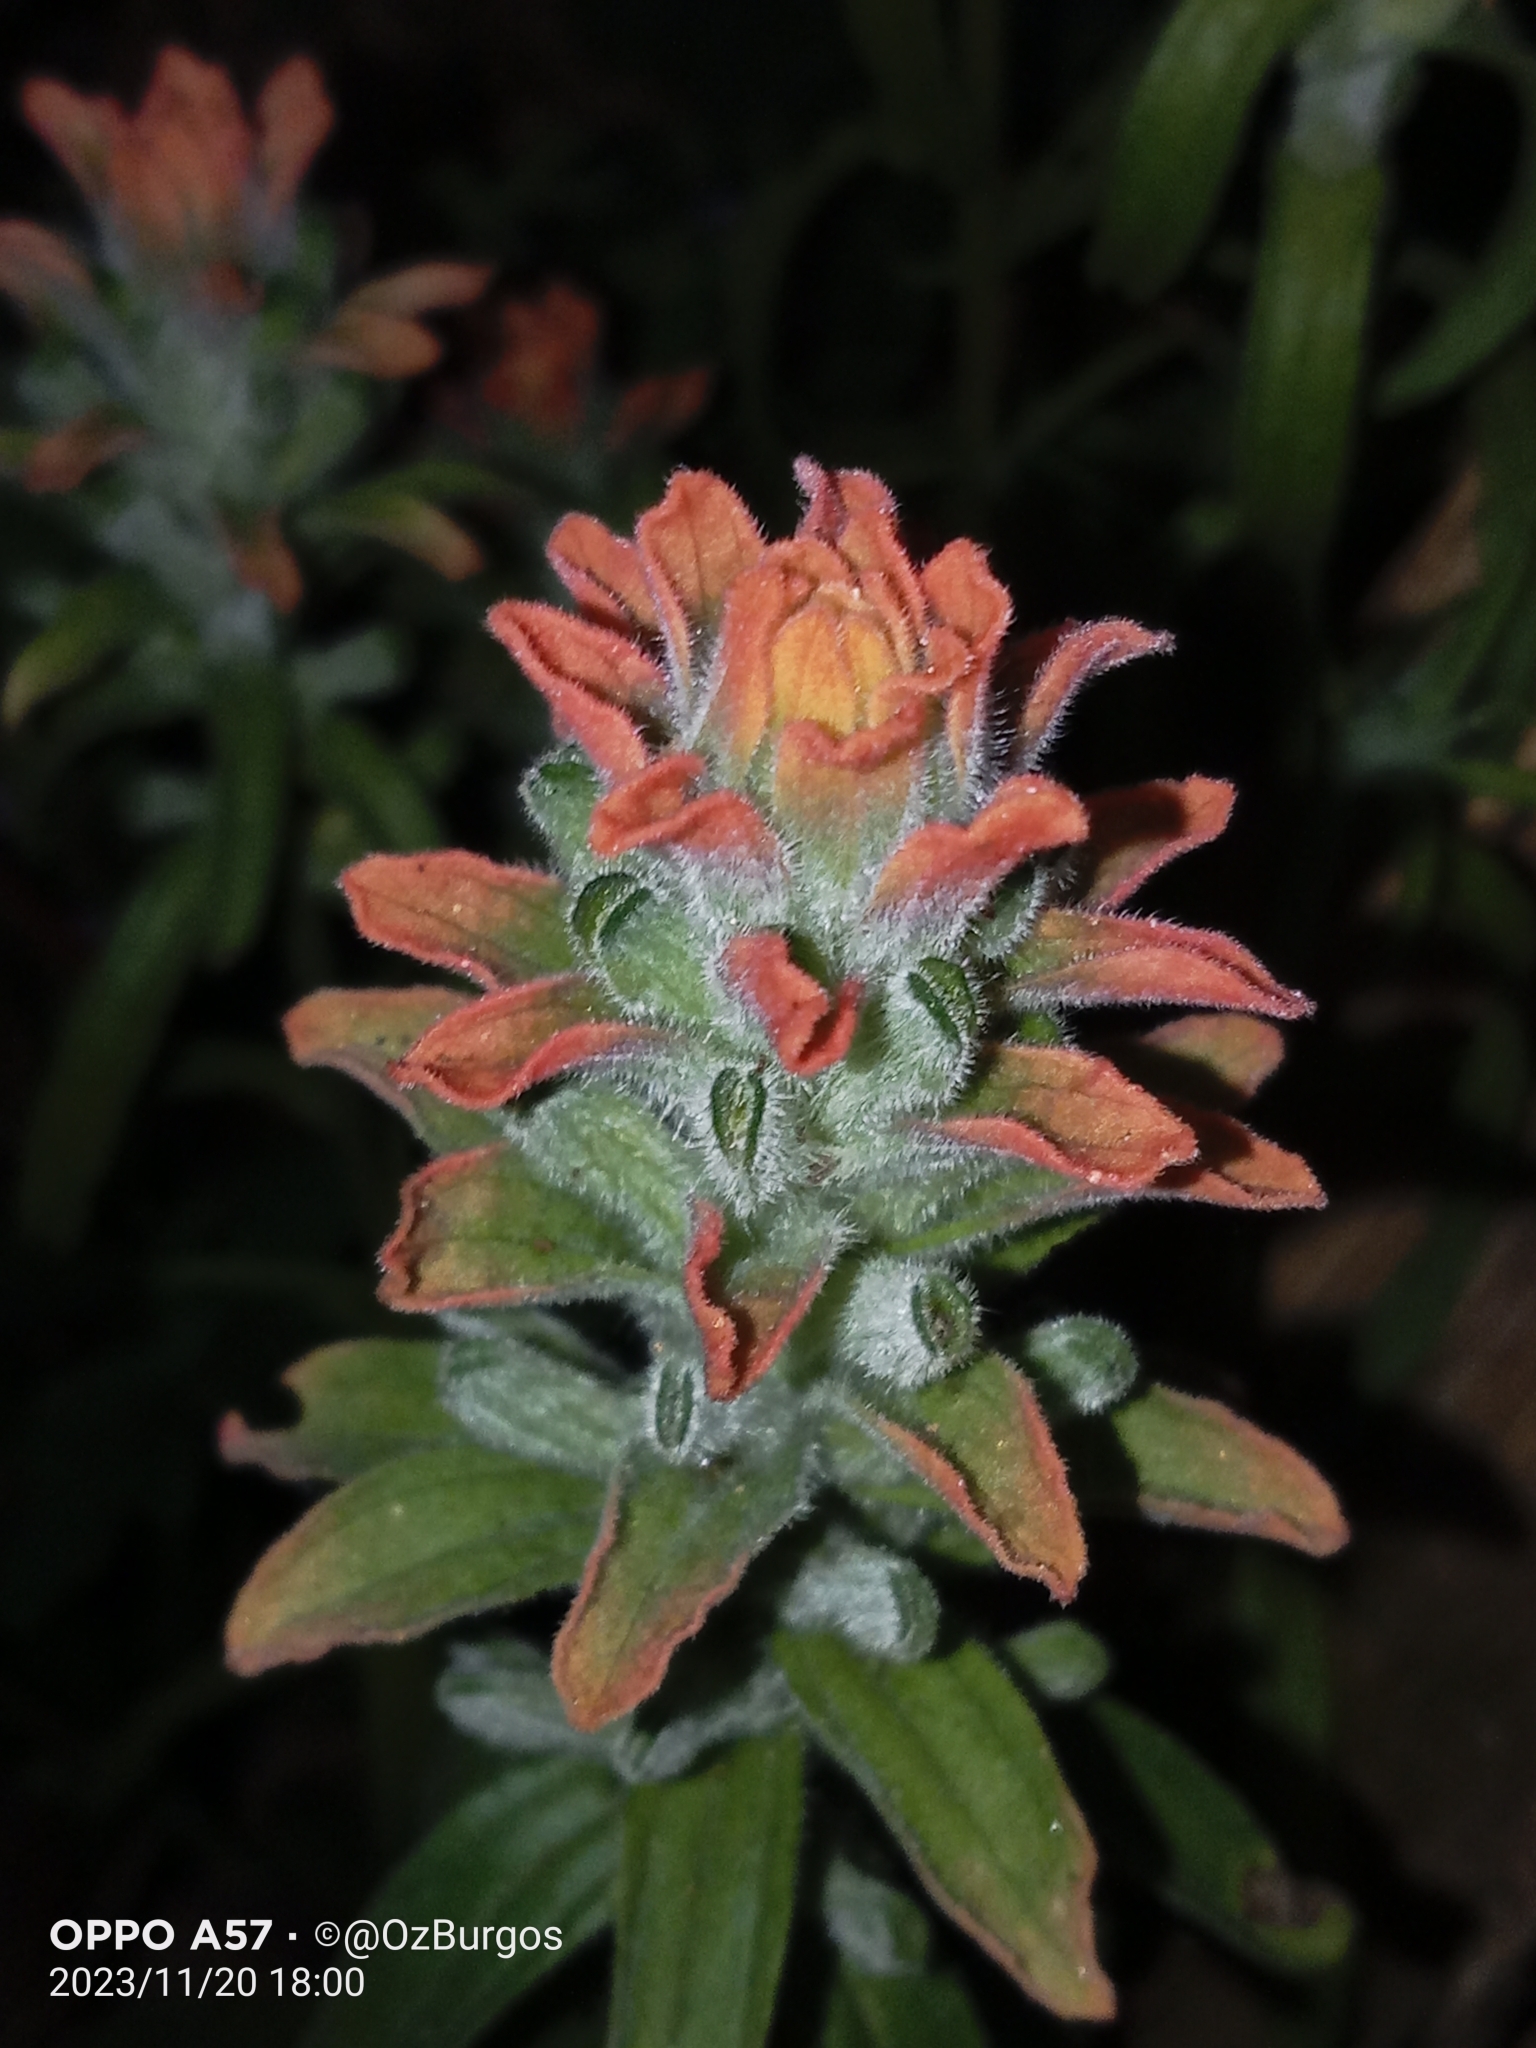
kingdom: Plantae
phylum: Tracheophyta
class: Magnoliopsida
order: Lamiales
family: Orobanchaceae
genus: Castilleja
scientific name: Castilleja arvensis
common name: Indian paintbrush
